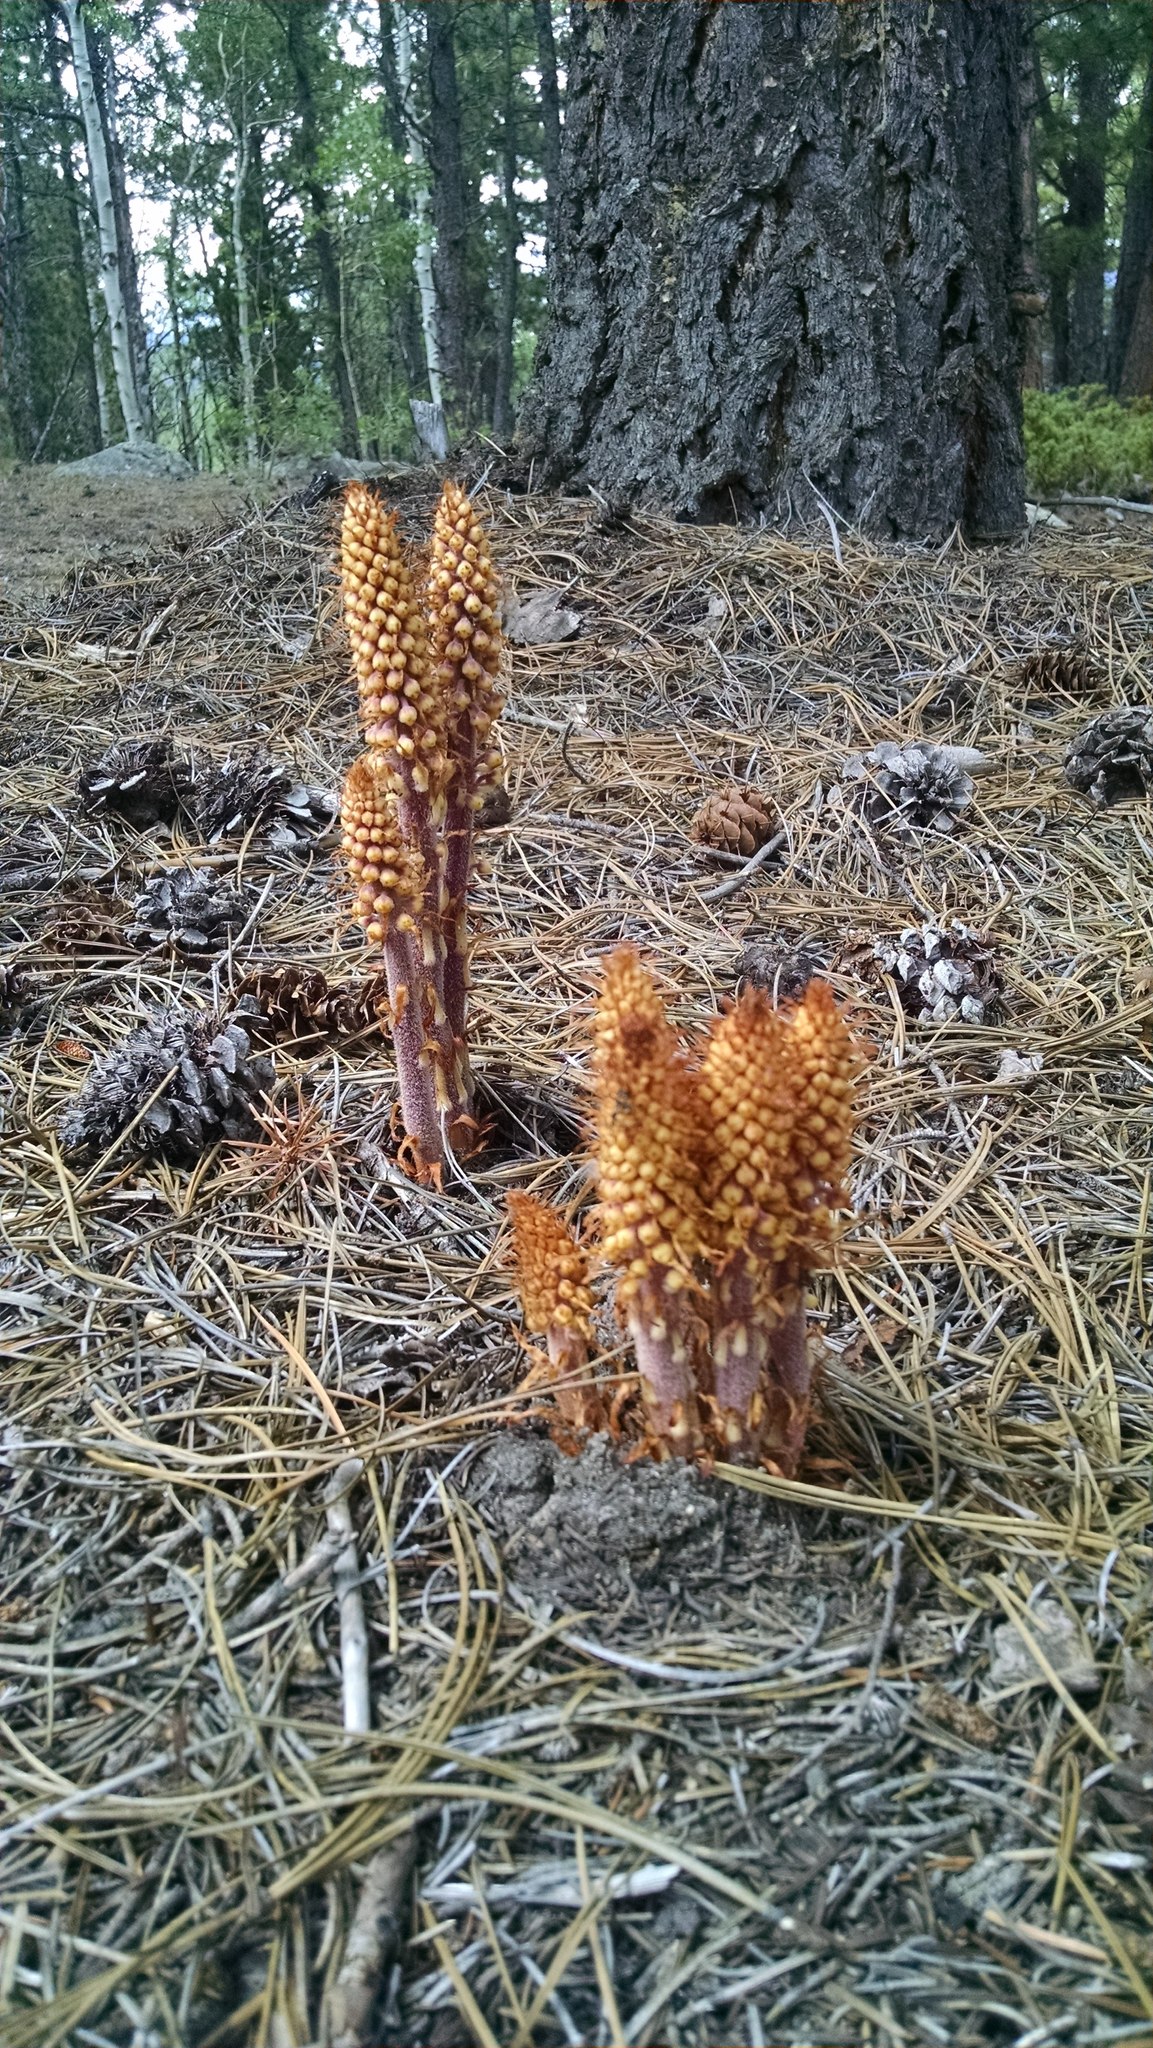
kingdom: Plantae
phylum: Tracheophyta
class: Magnoliopsida
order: Ericales
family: Ericaceae
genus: Pterospora
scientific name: Pterospora andromedea
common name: Giant bird's-nest
